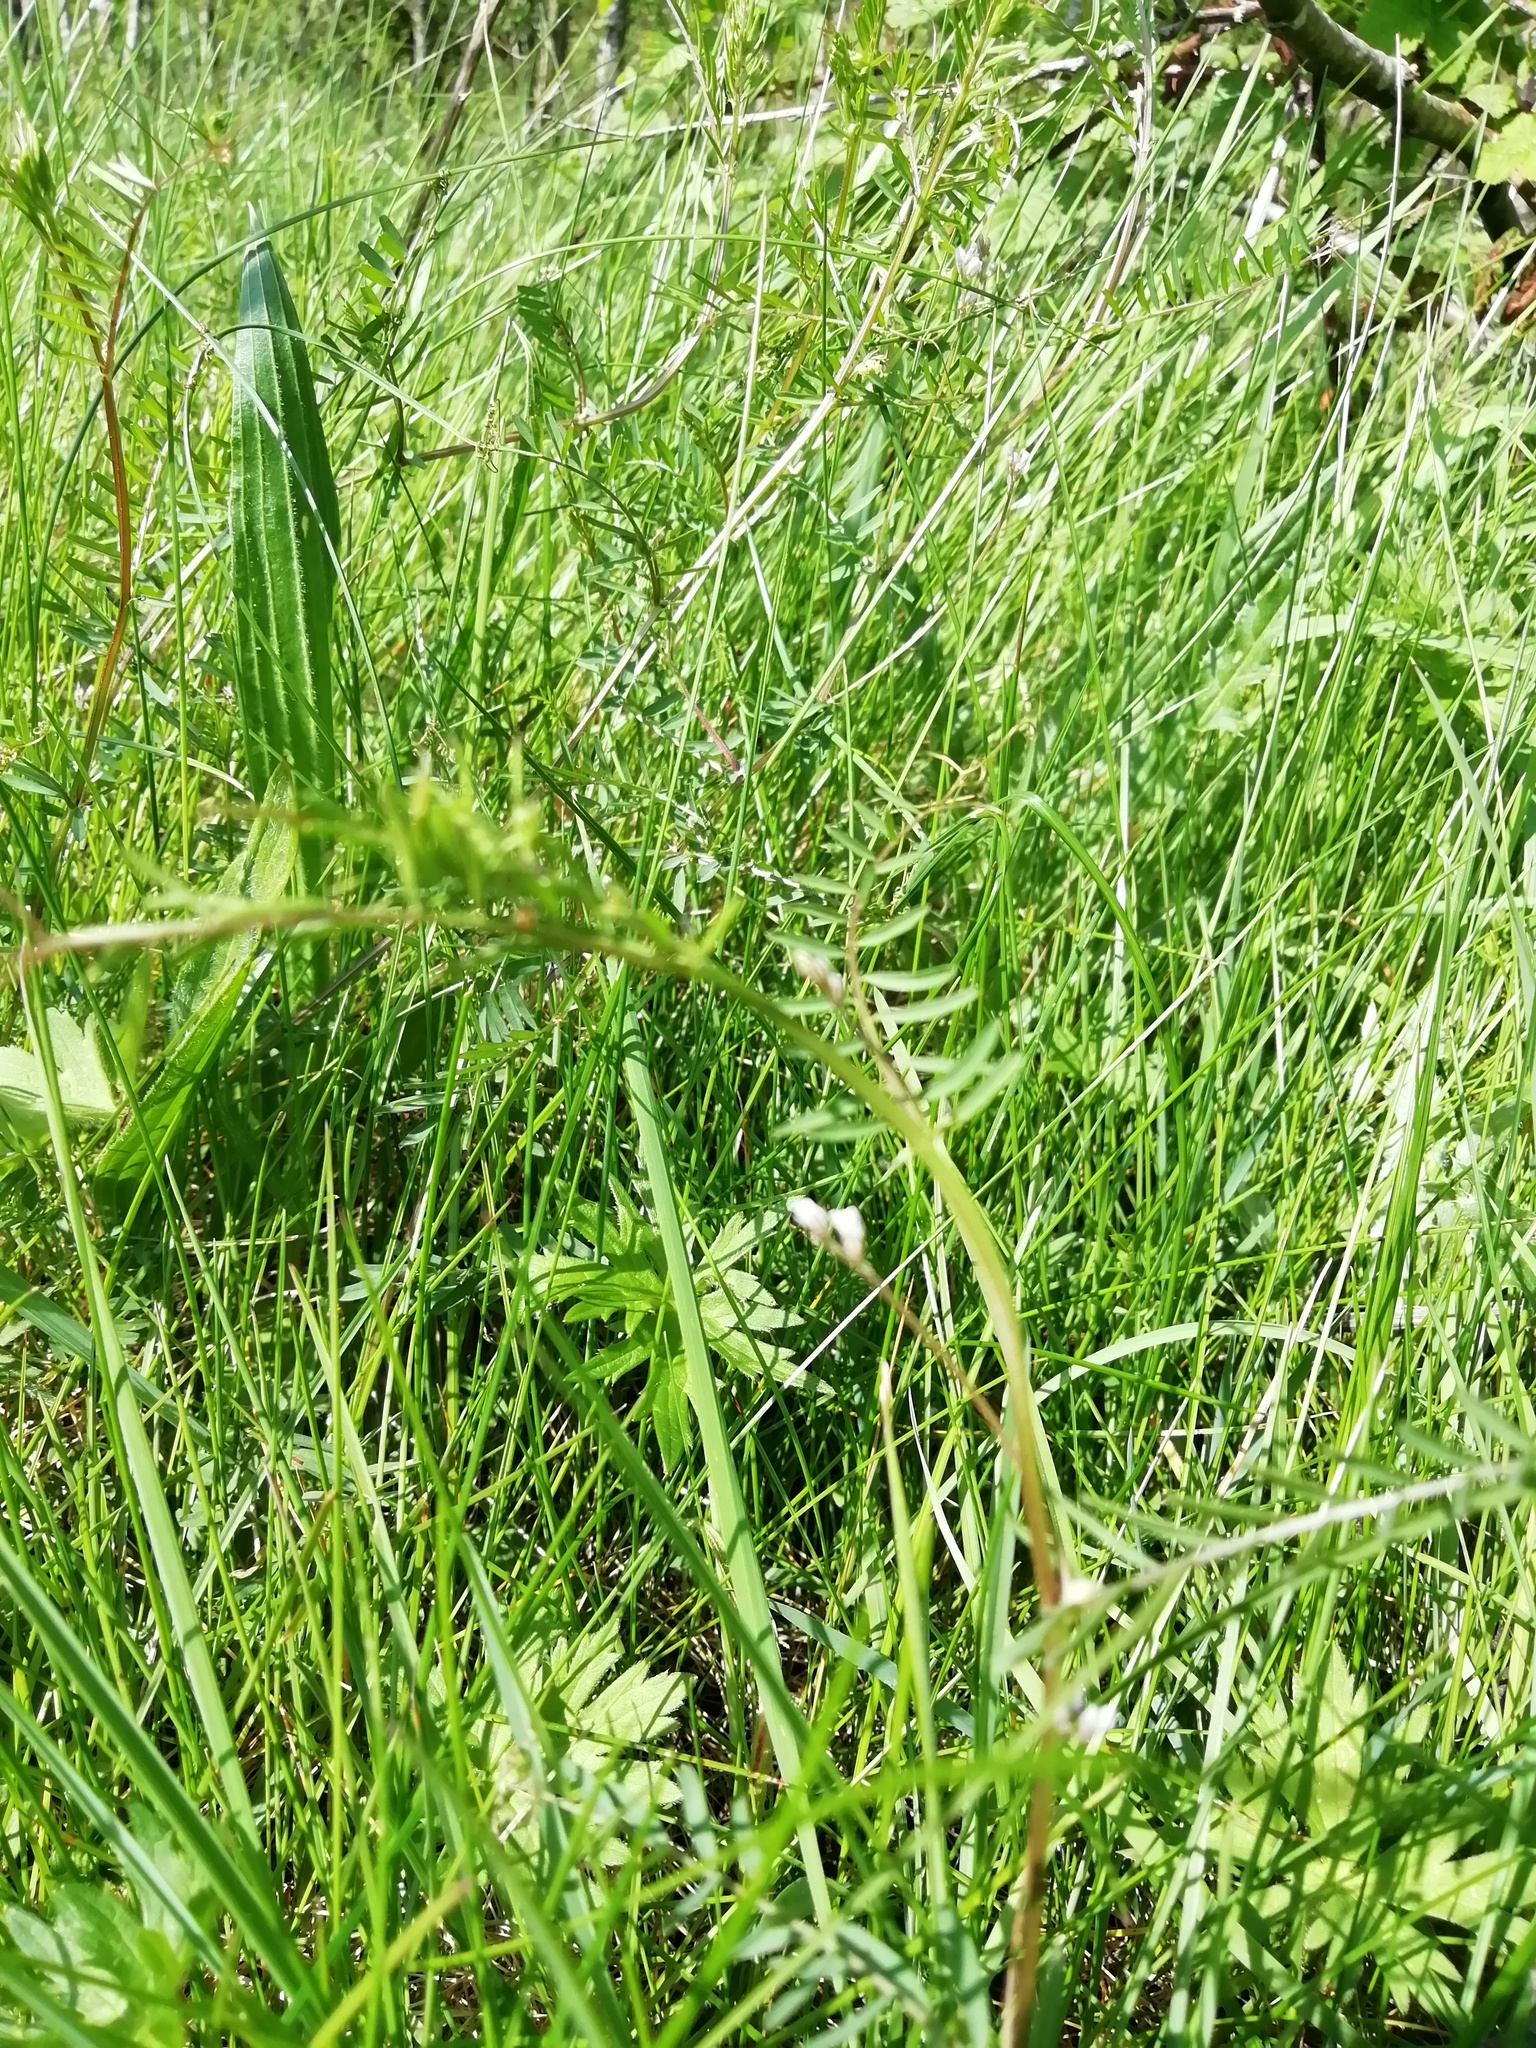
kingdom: Plantae
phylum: Tracheophyta
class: Magnoliopsida
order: Fabales
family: Fabaceae
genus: Vicia
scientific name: Vicia hirsuta
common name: Tiny vetch
